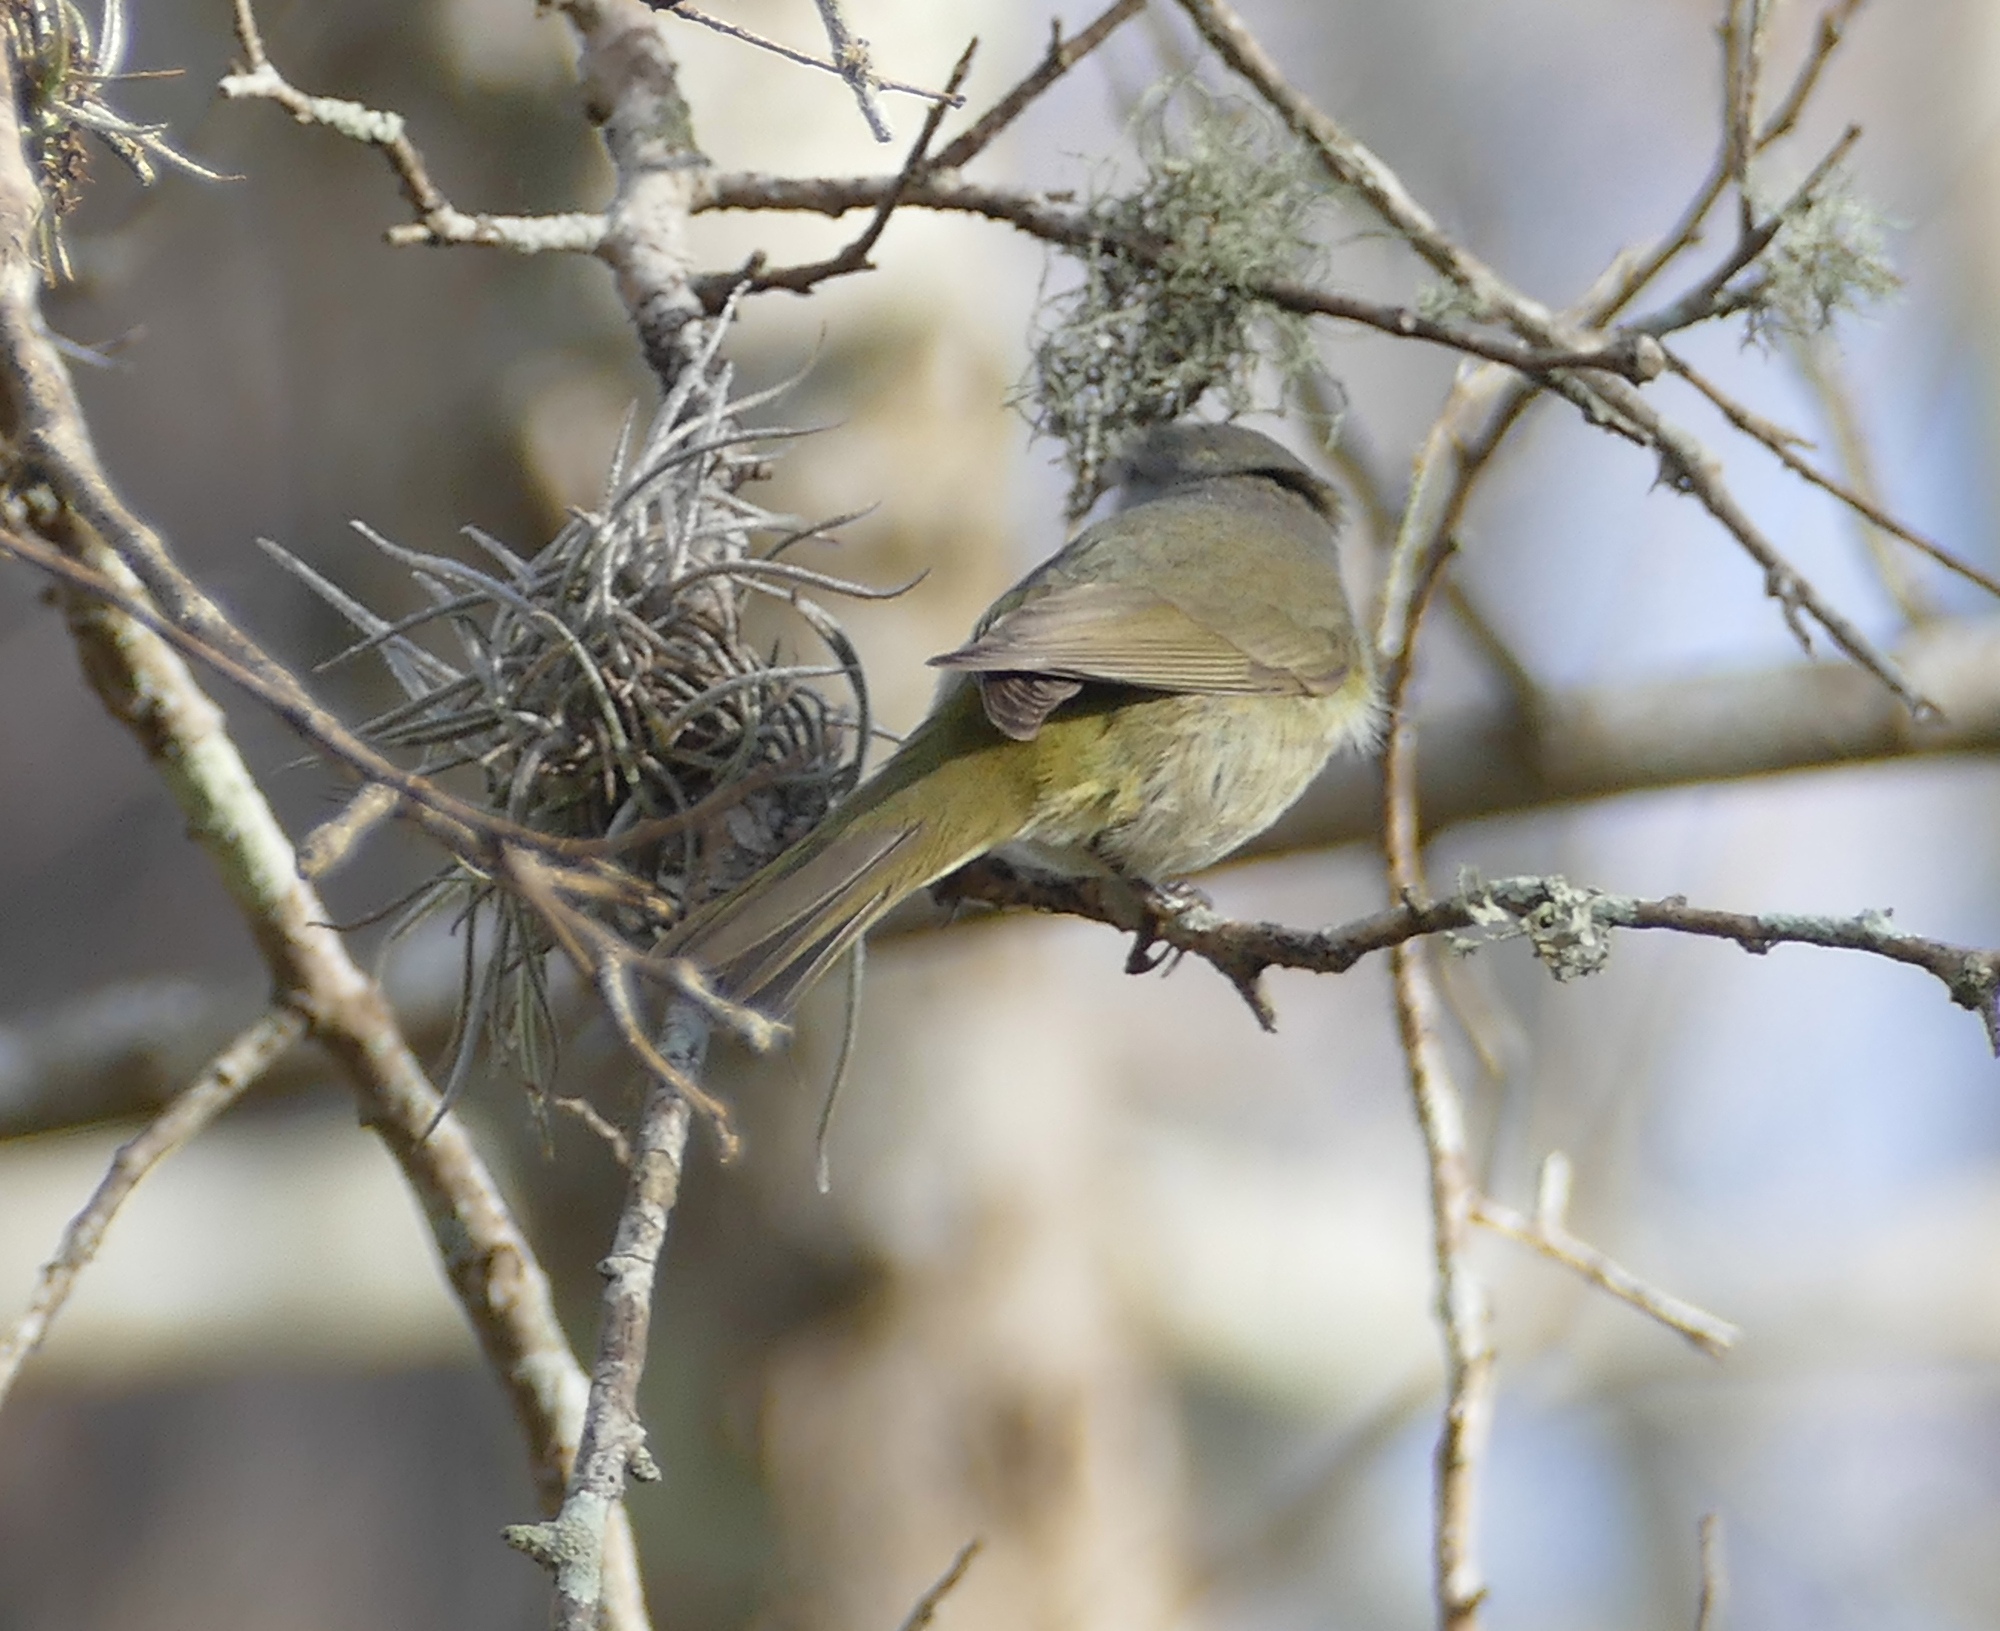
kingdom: Animalia
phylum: Chordata
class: Aves
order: Passeriformes
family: Parulidae
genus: Leiothlypis
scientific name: Leiothlypis celata
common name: Orange-crowned warbler
